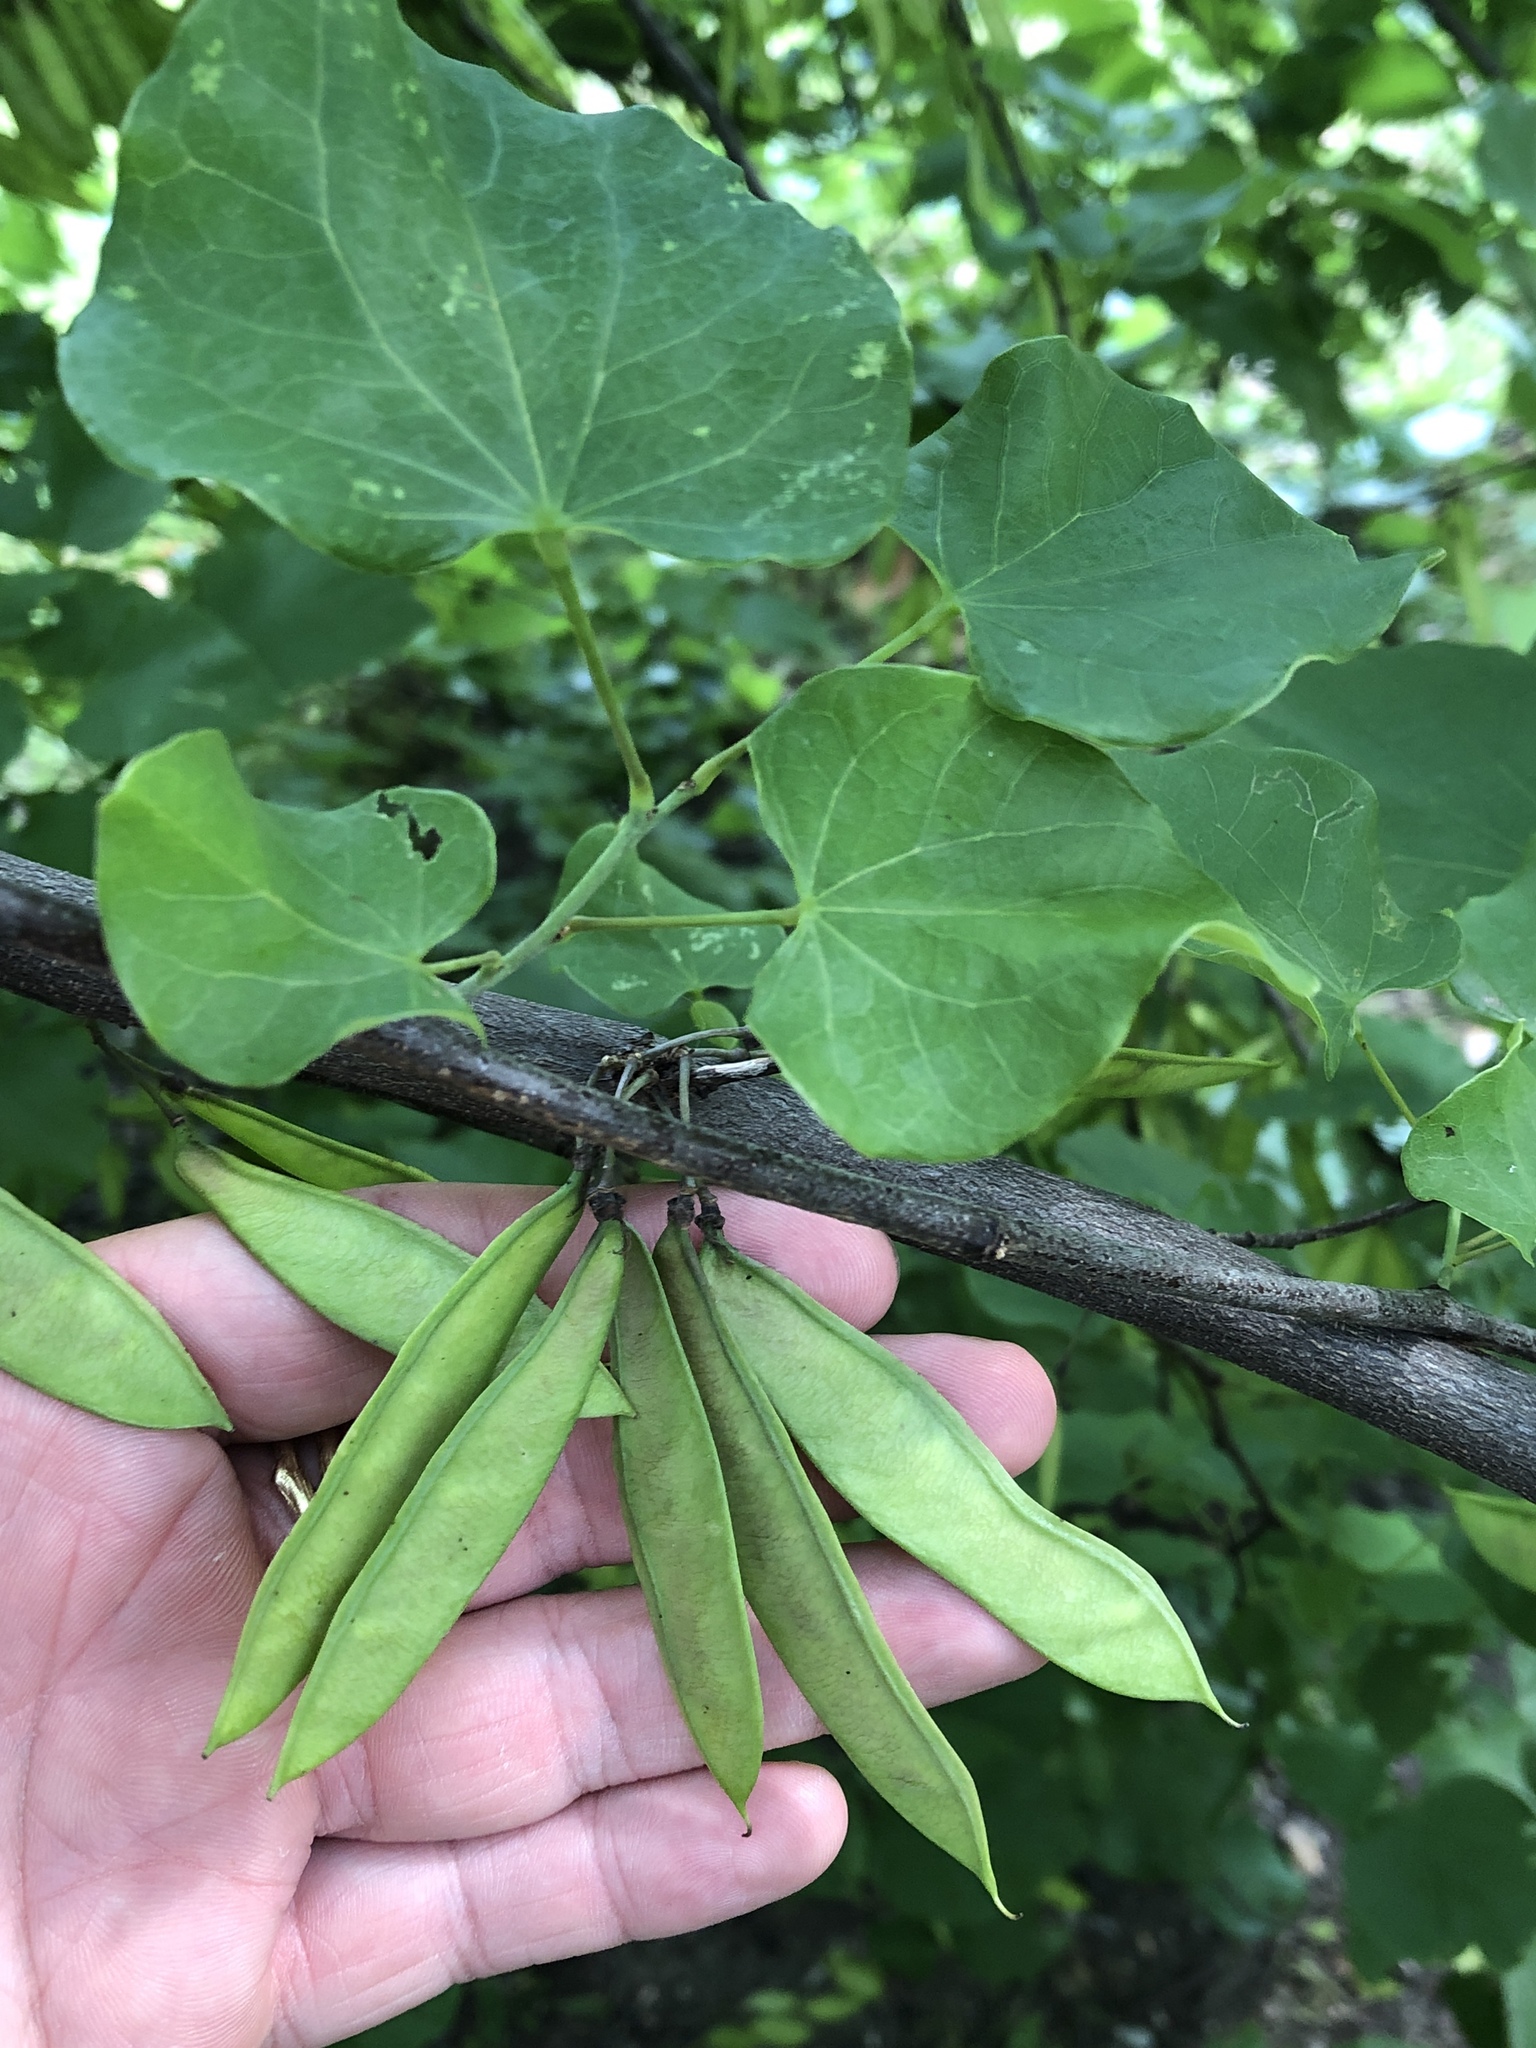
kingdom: Plantae
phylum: Tracheophyta
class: Magnoliopsida
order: Fabales
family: Fabaceae
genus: Cercis
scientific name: Cercis canadensis
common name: Eastern redbud
